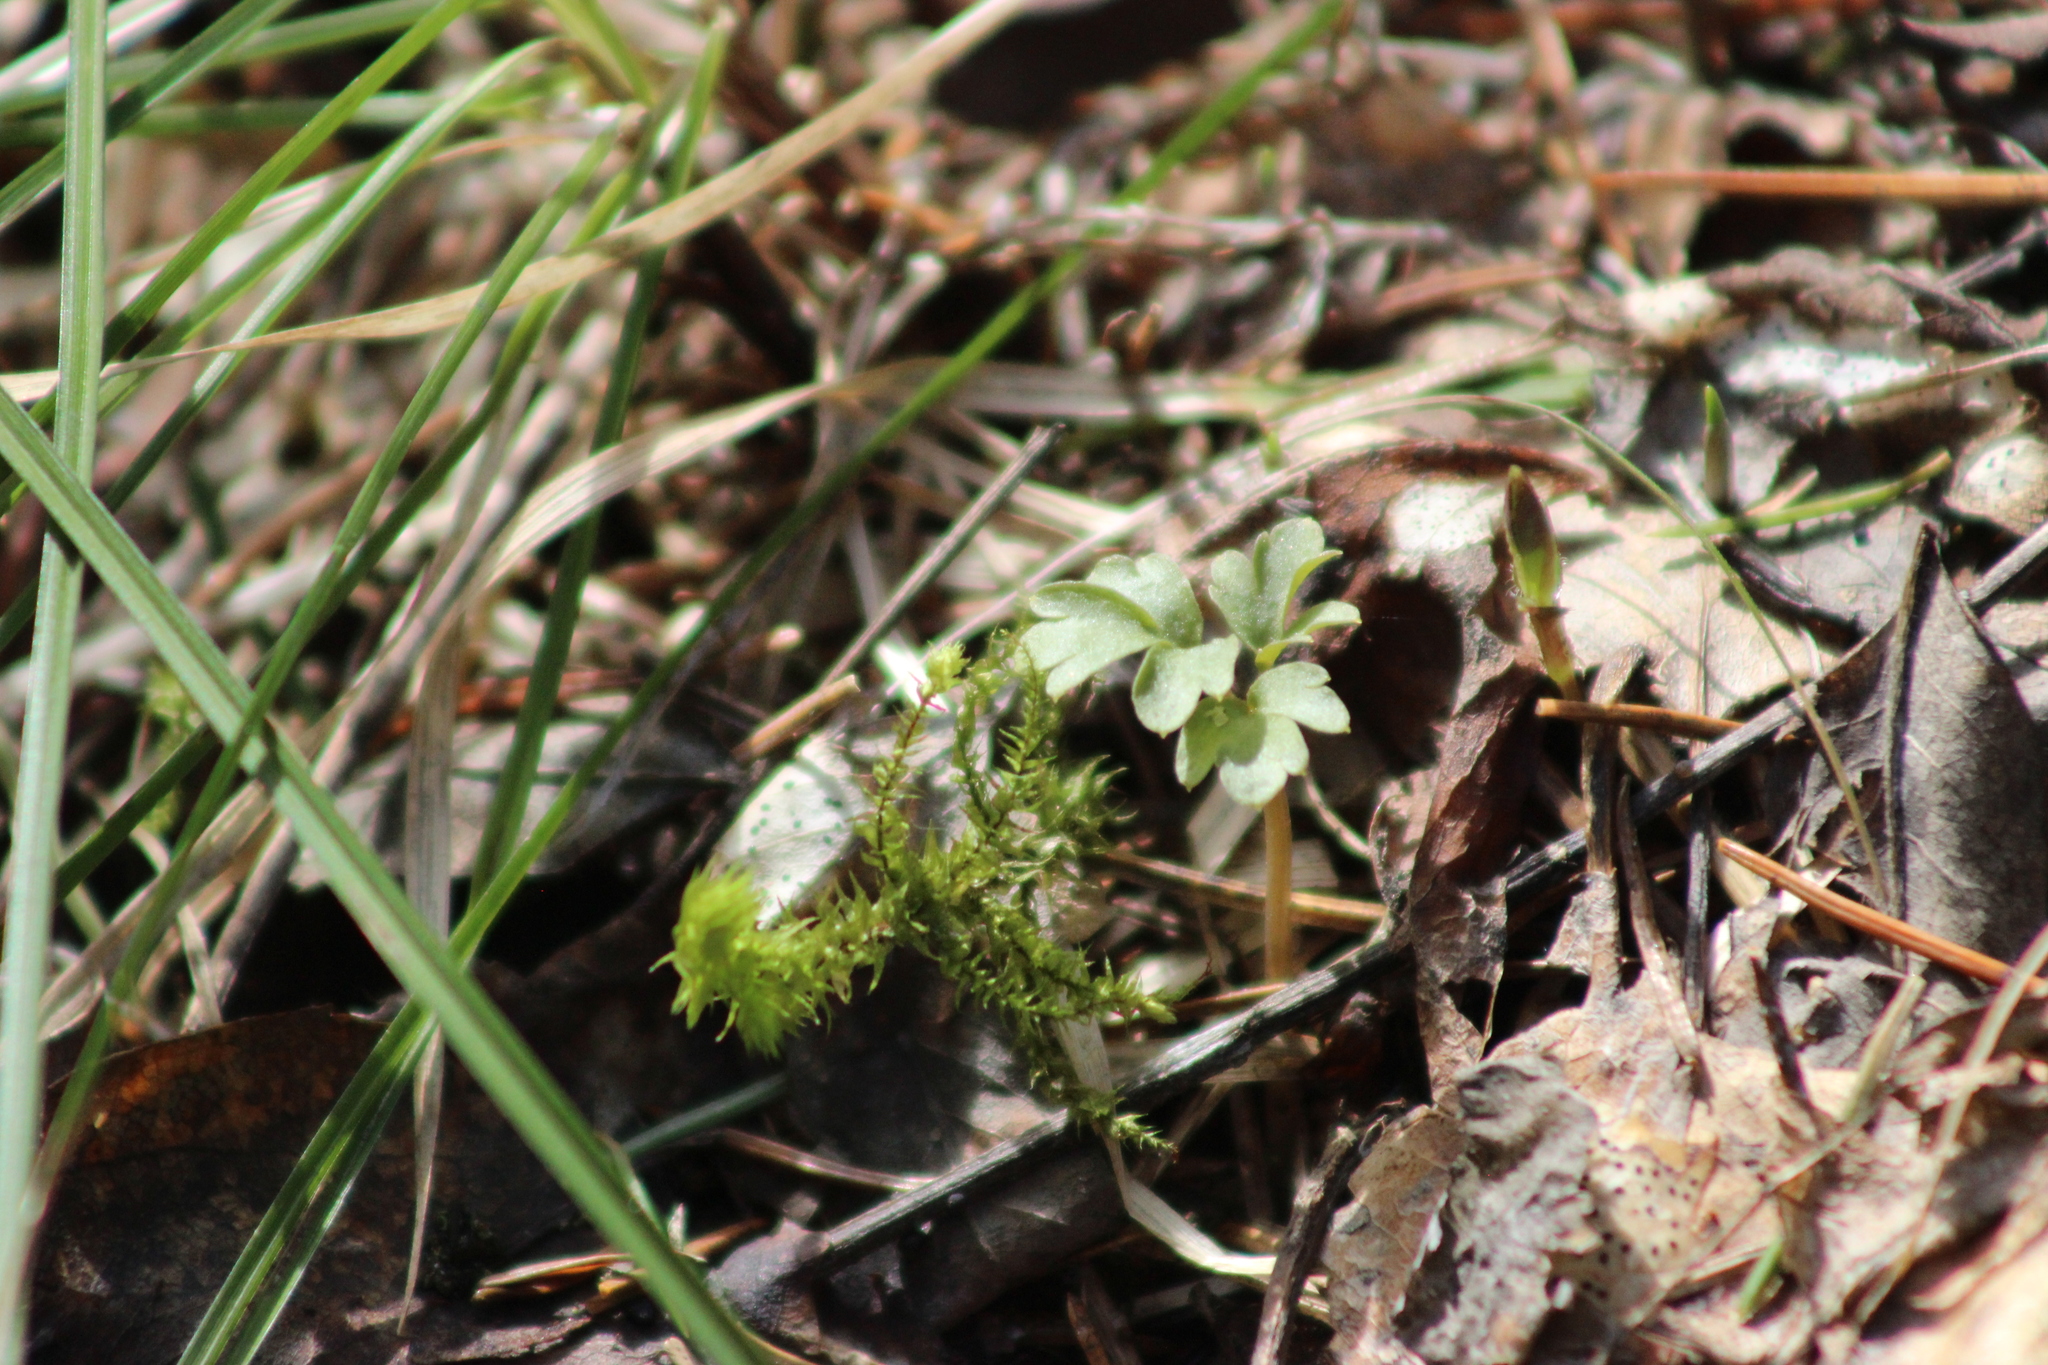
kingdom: Plantae
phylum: Tracheophyta
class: Magnoliopsida
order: Dipsacales
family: Viburnaceae
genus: Adoxa
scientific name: Adoxa moschatellina
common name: Moschatel
